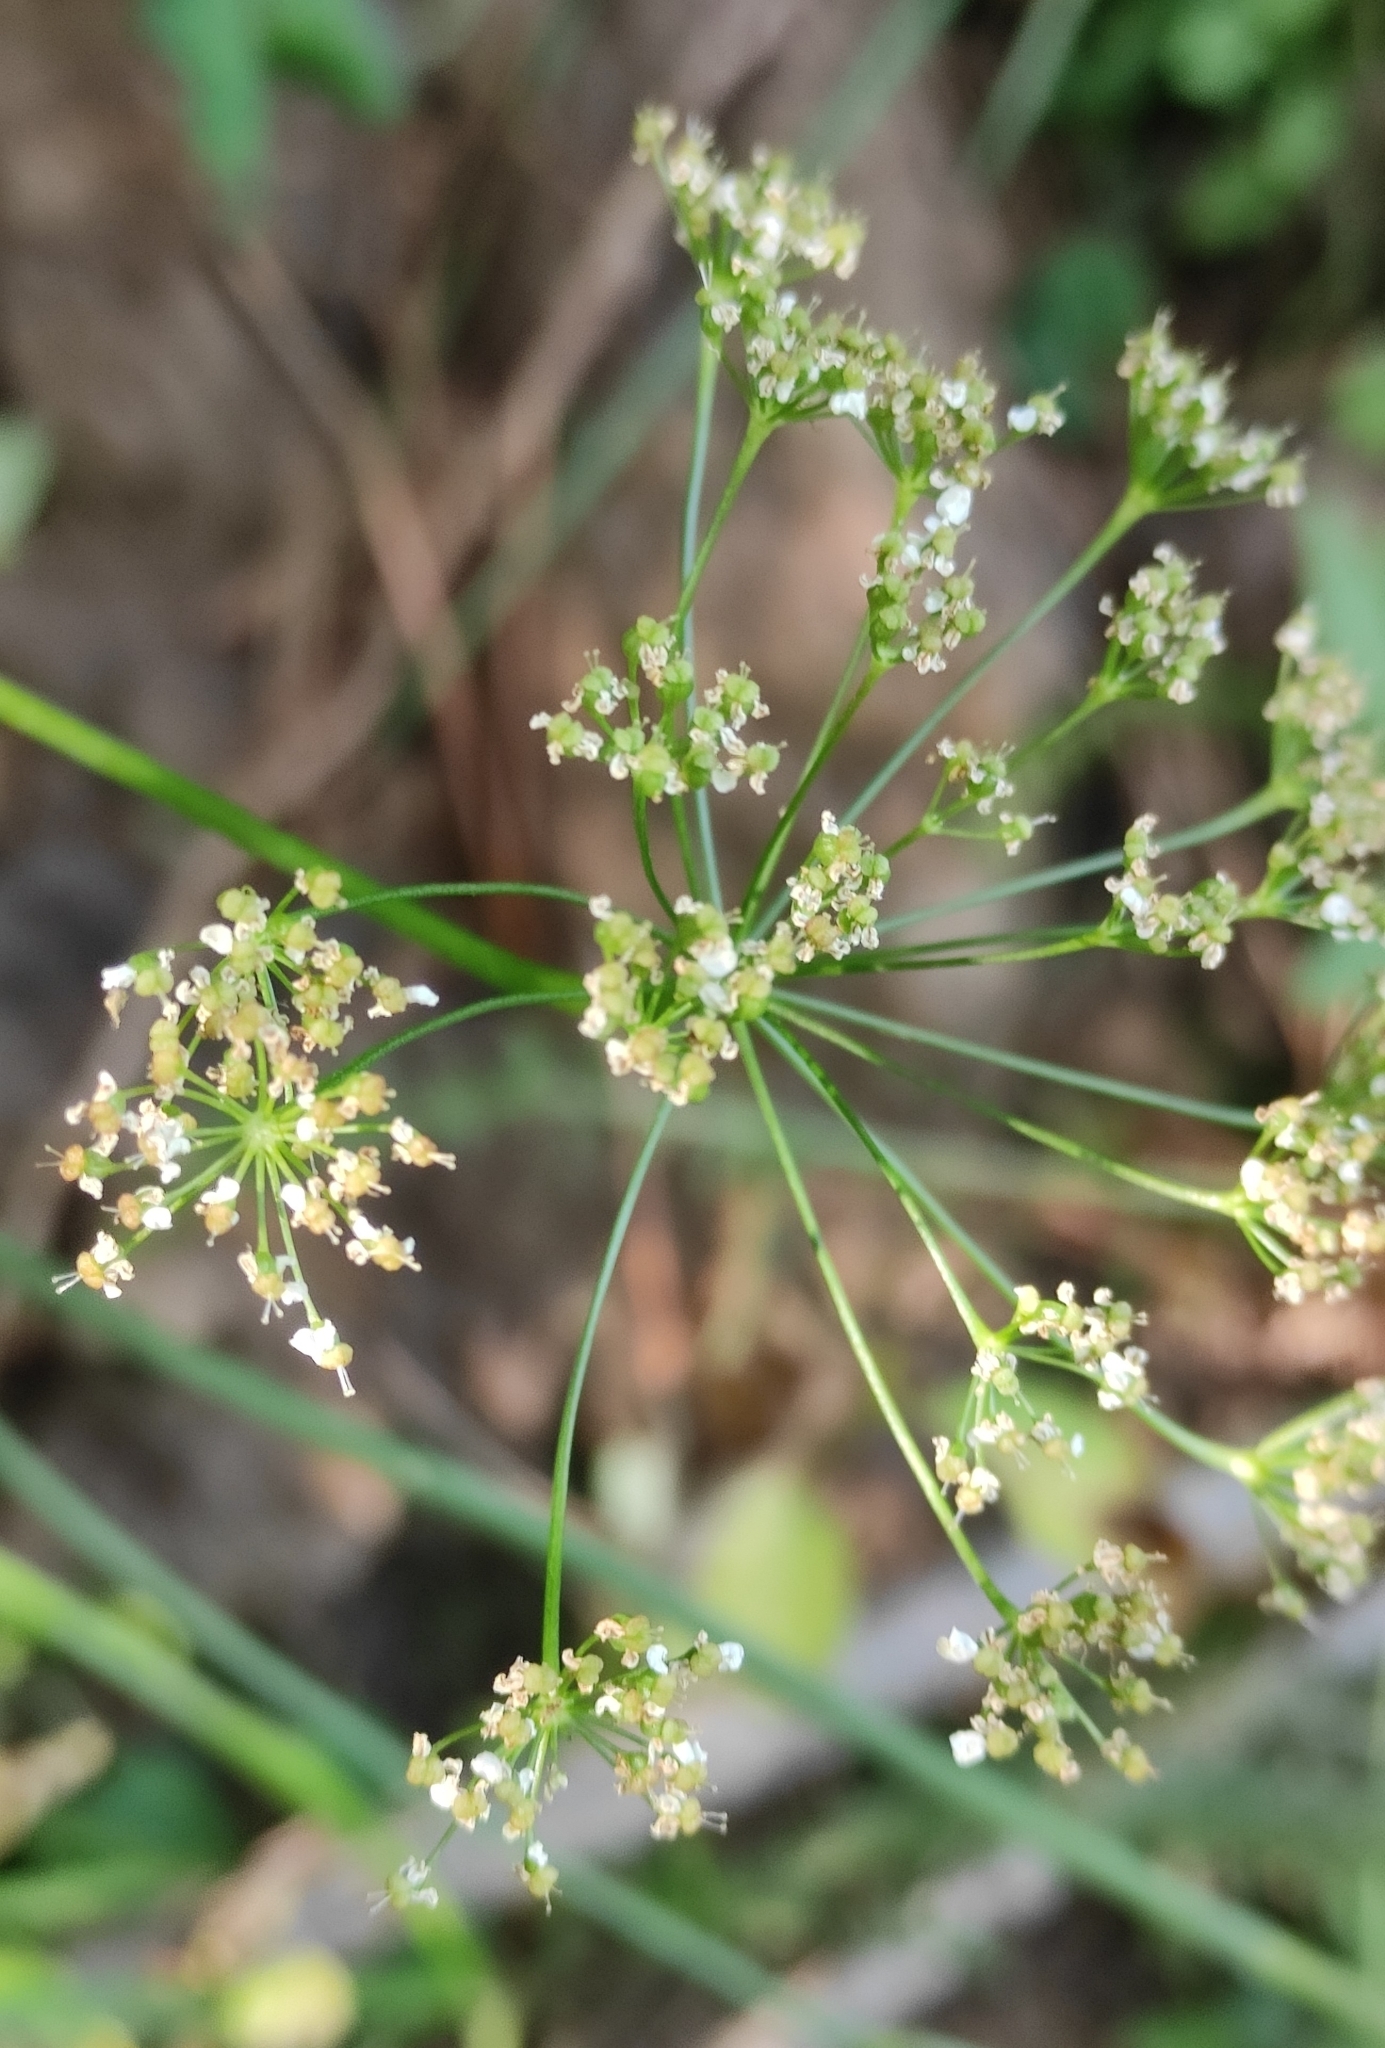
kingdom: Plantae
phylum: Tracheophyta
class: Magnoliopsida
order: Apiales
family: Apiaceae
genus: Pimpinella
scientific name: Pimpinella saxifraga
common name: Burnet-saxifrage
